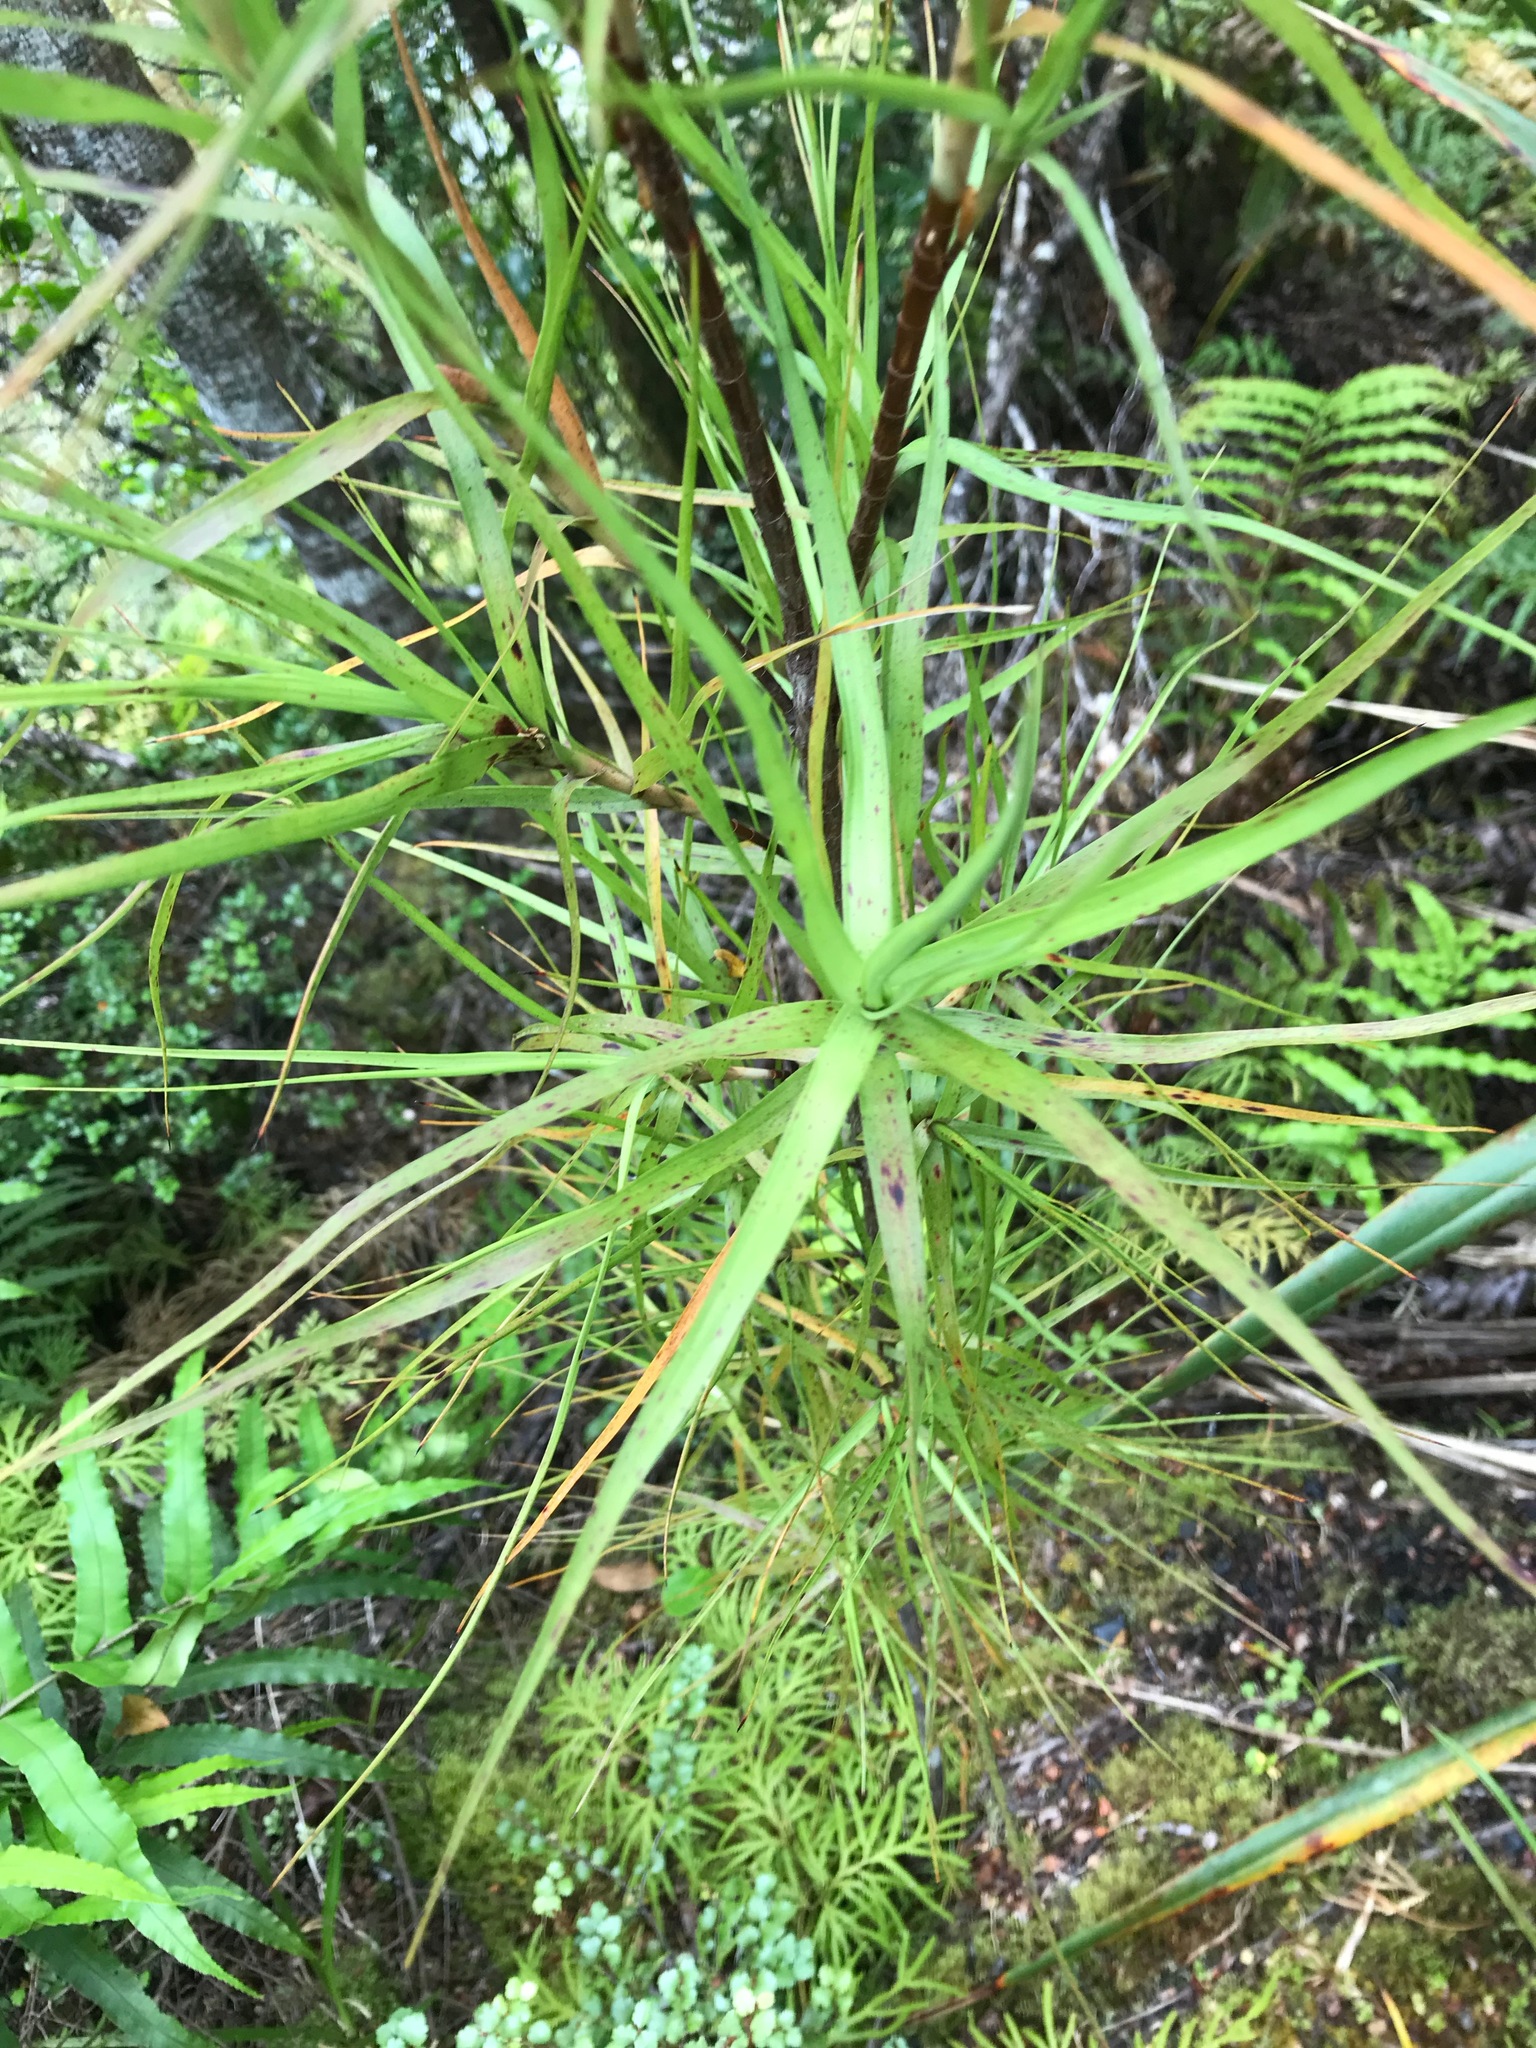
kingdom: Plantae
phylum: Tracheophyta
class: Magnoliopsida
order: Ericales
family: Ericaceae
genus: Dracophyllum
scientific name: Dracophyllum longifolium
